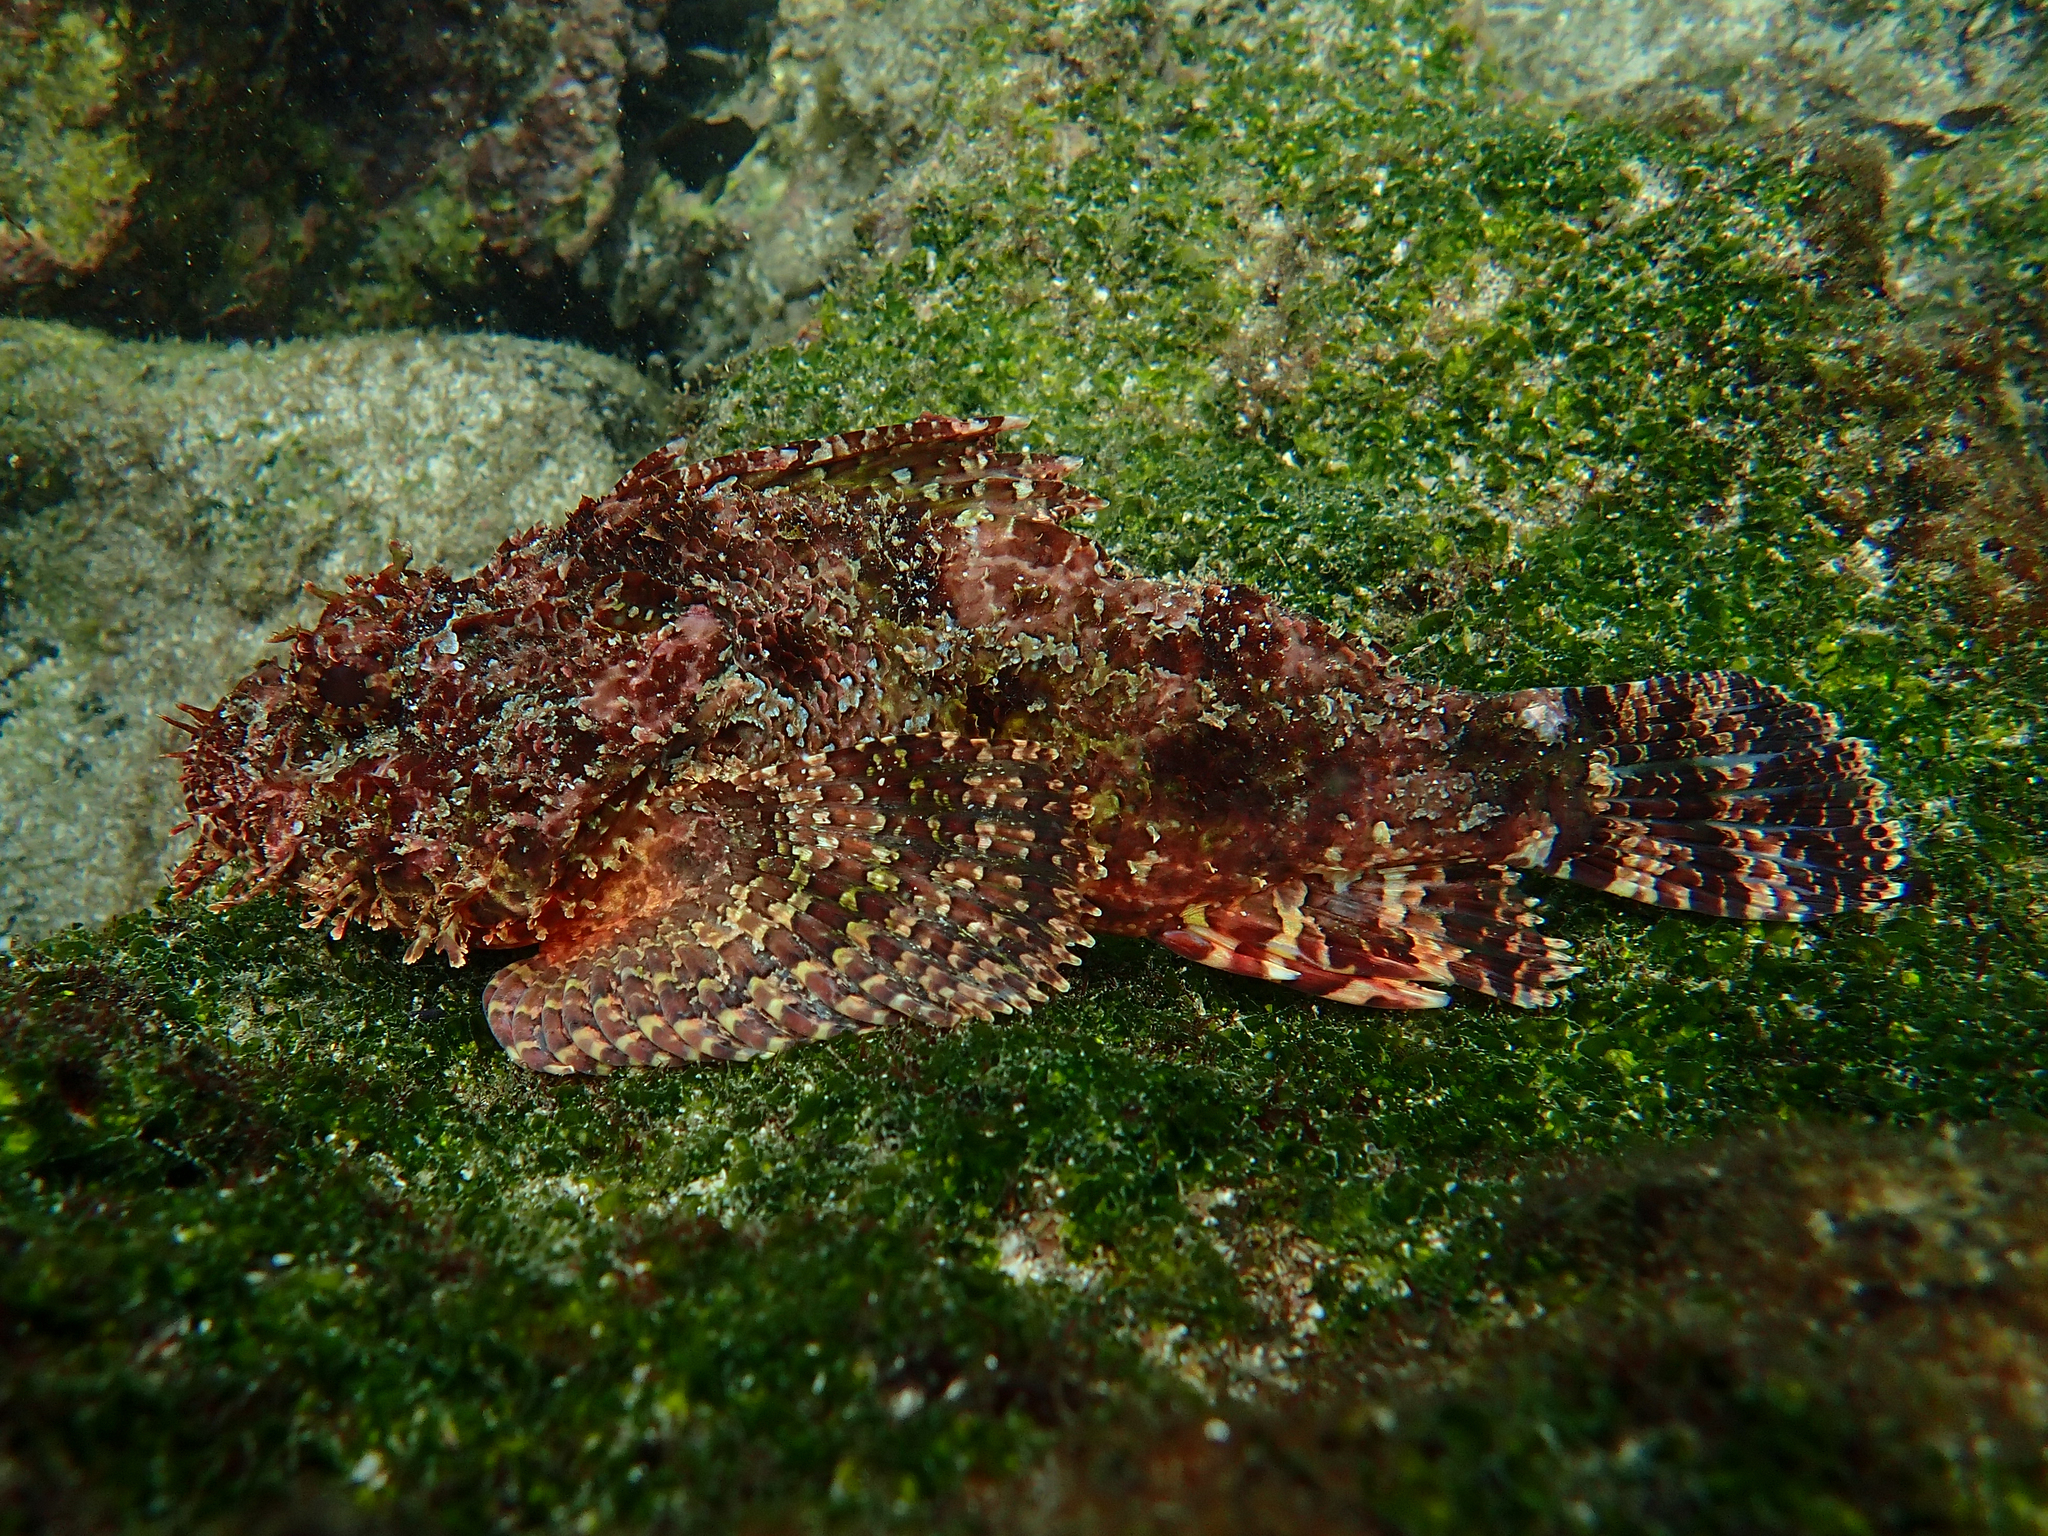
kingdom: Animalia
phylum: Chordata
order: Scorpaeniformes
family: Scorpaenidae
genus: Scorpaena
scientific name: Scorpaena mystes
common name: Pacific spotted scorpionfish
